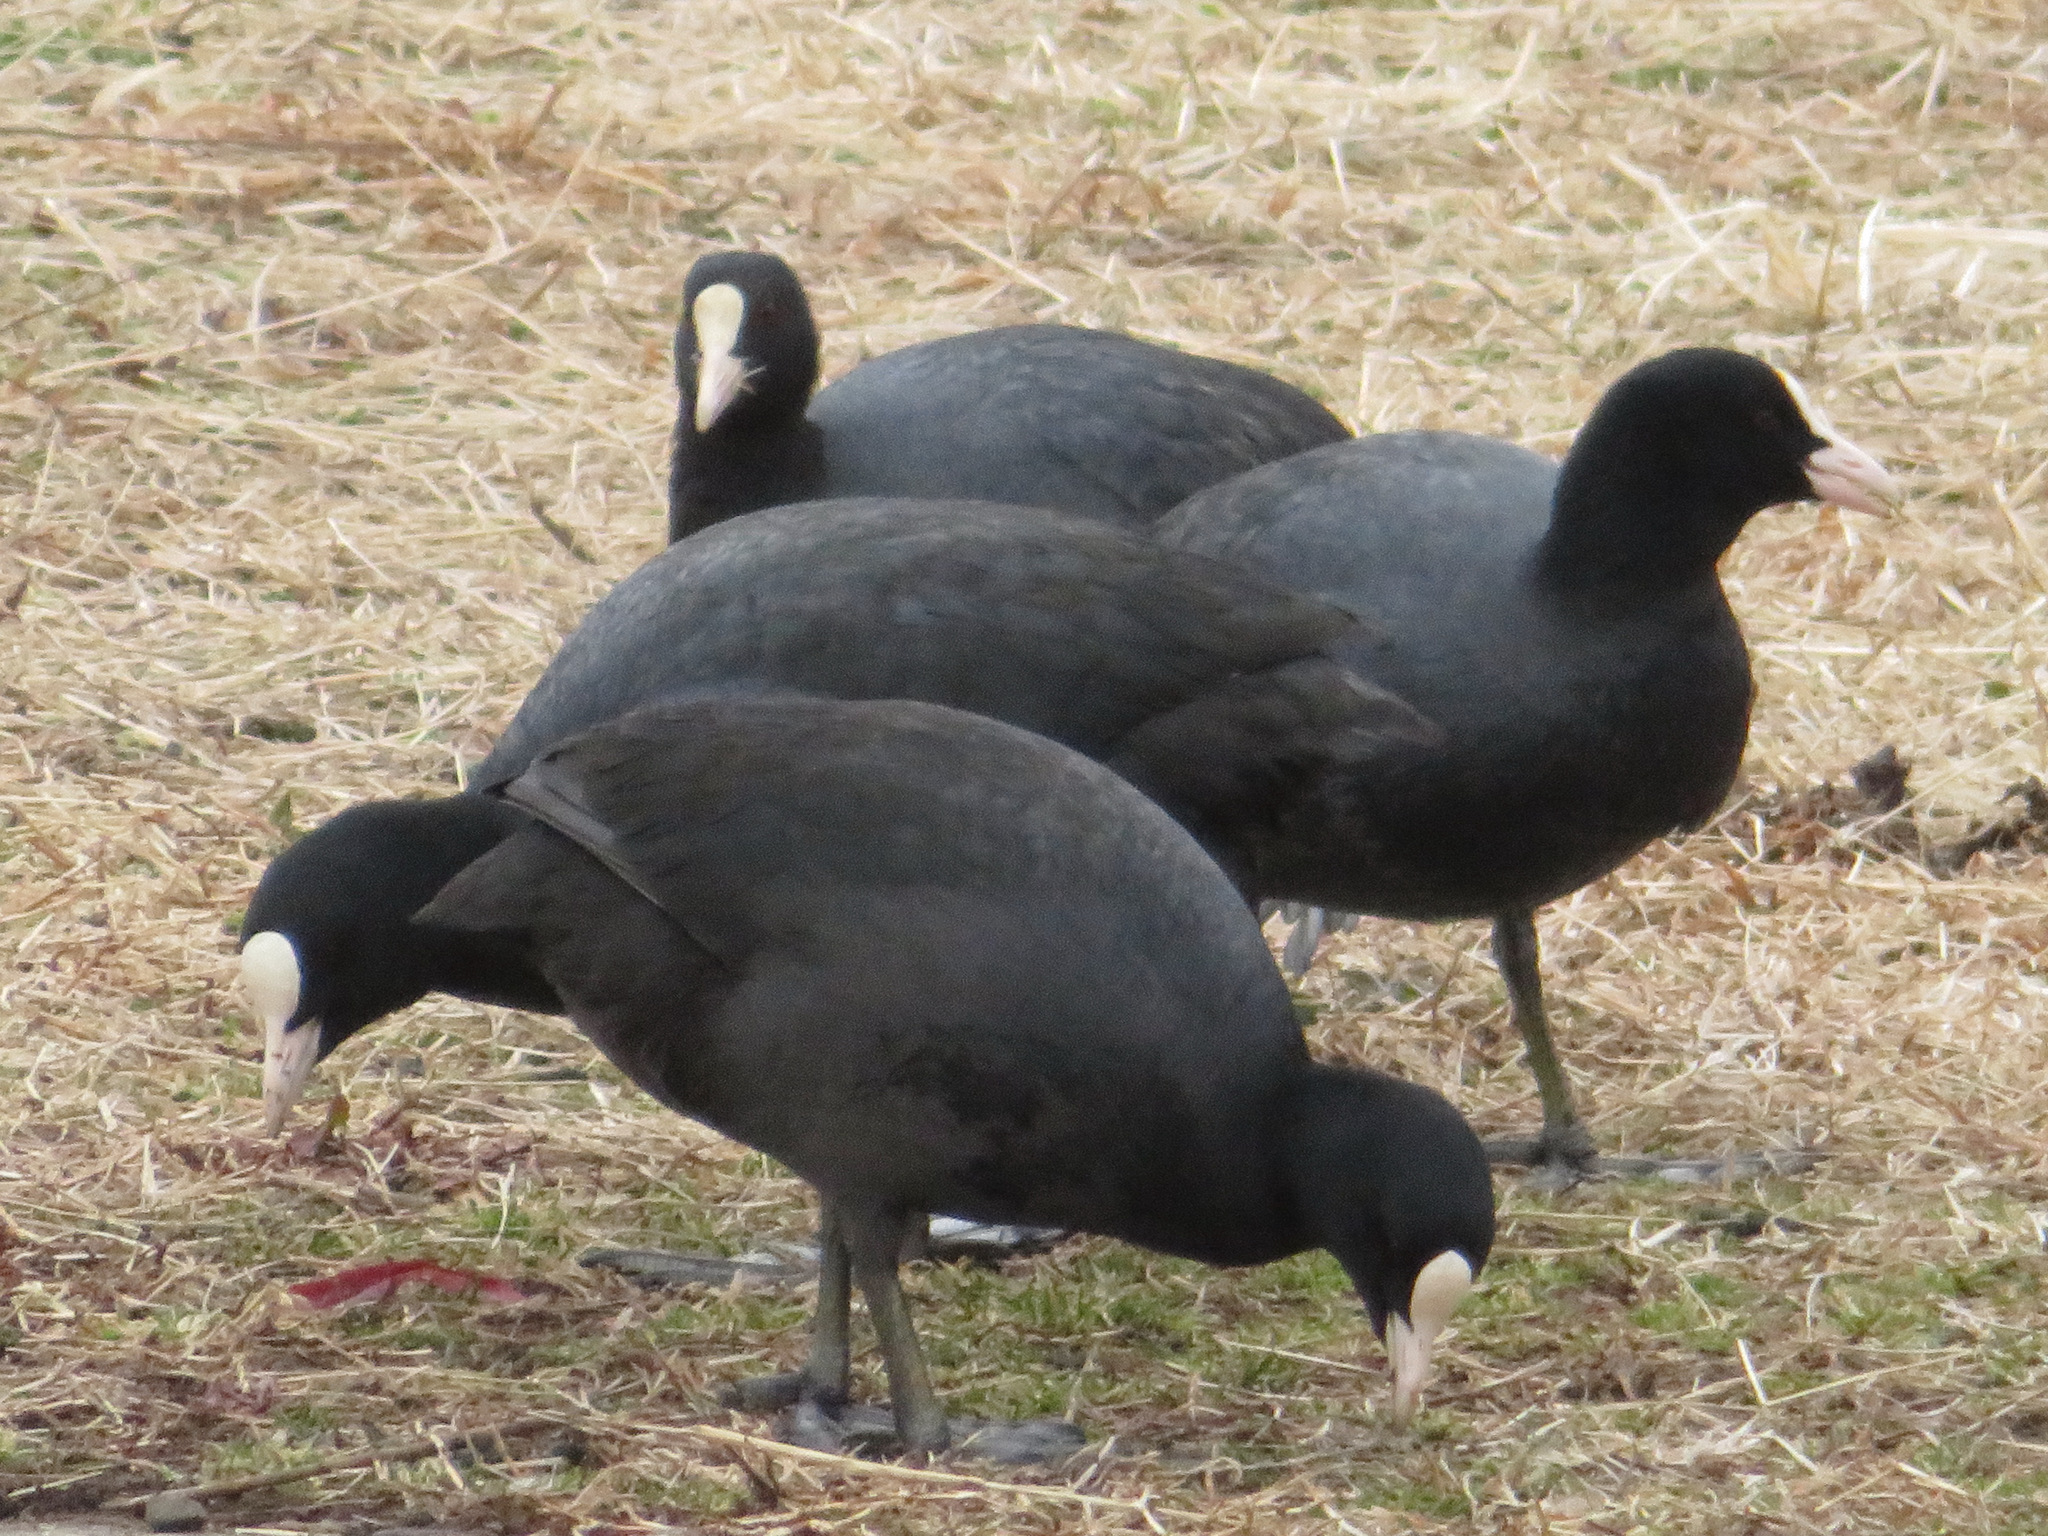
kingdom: Animalia
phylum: Chordata
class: Aves
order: Gruiformes
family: Rallidae
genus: Fulica
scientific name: Fulica atra
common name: Eurasian coot
